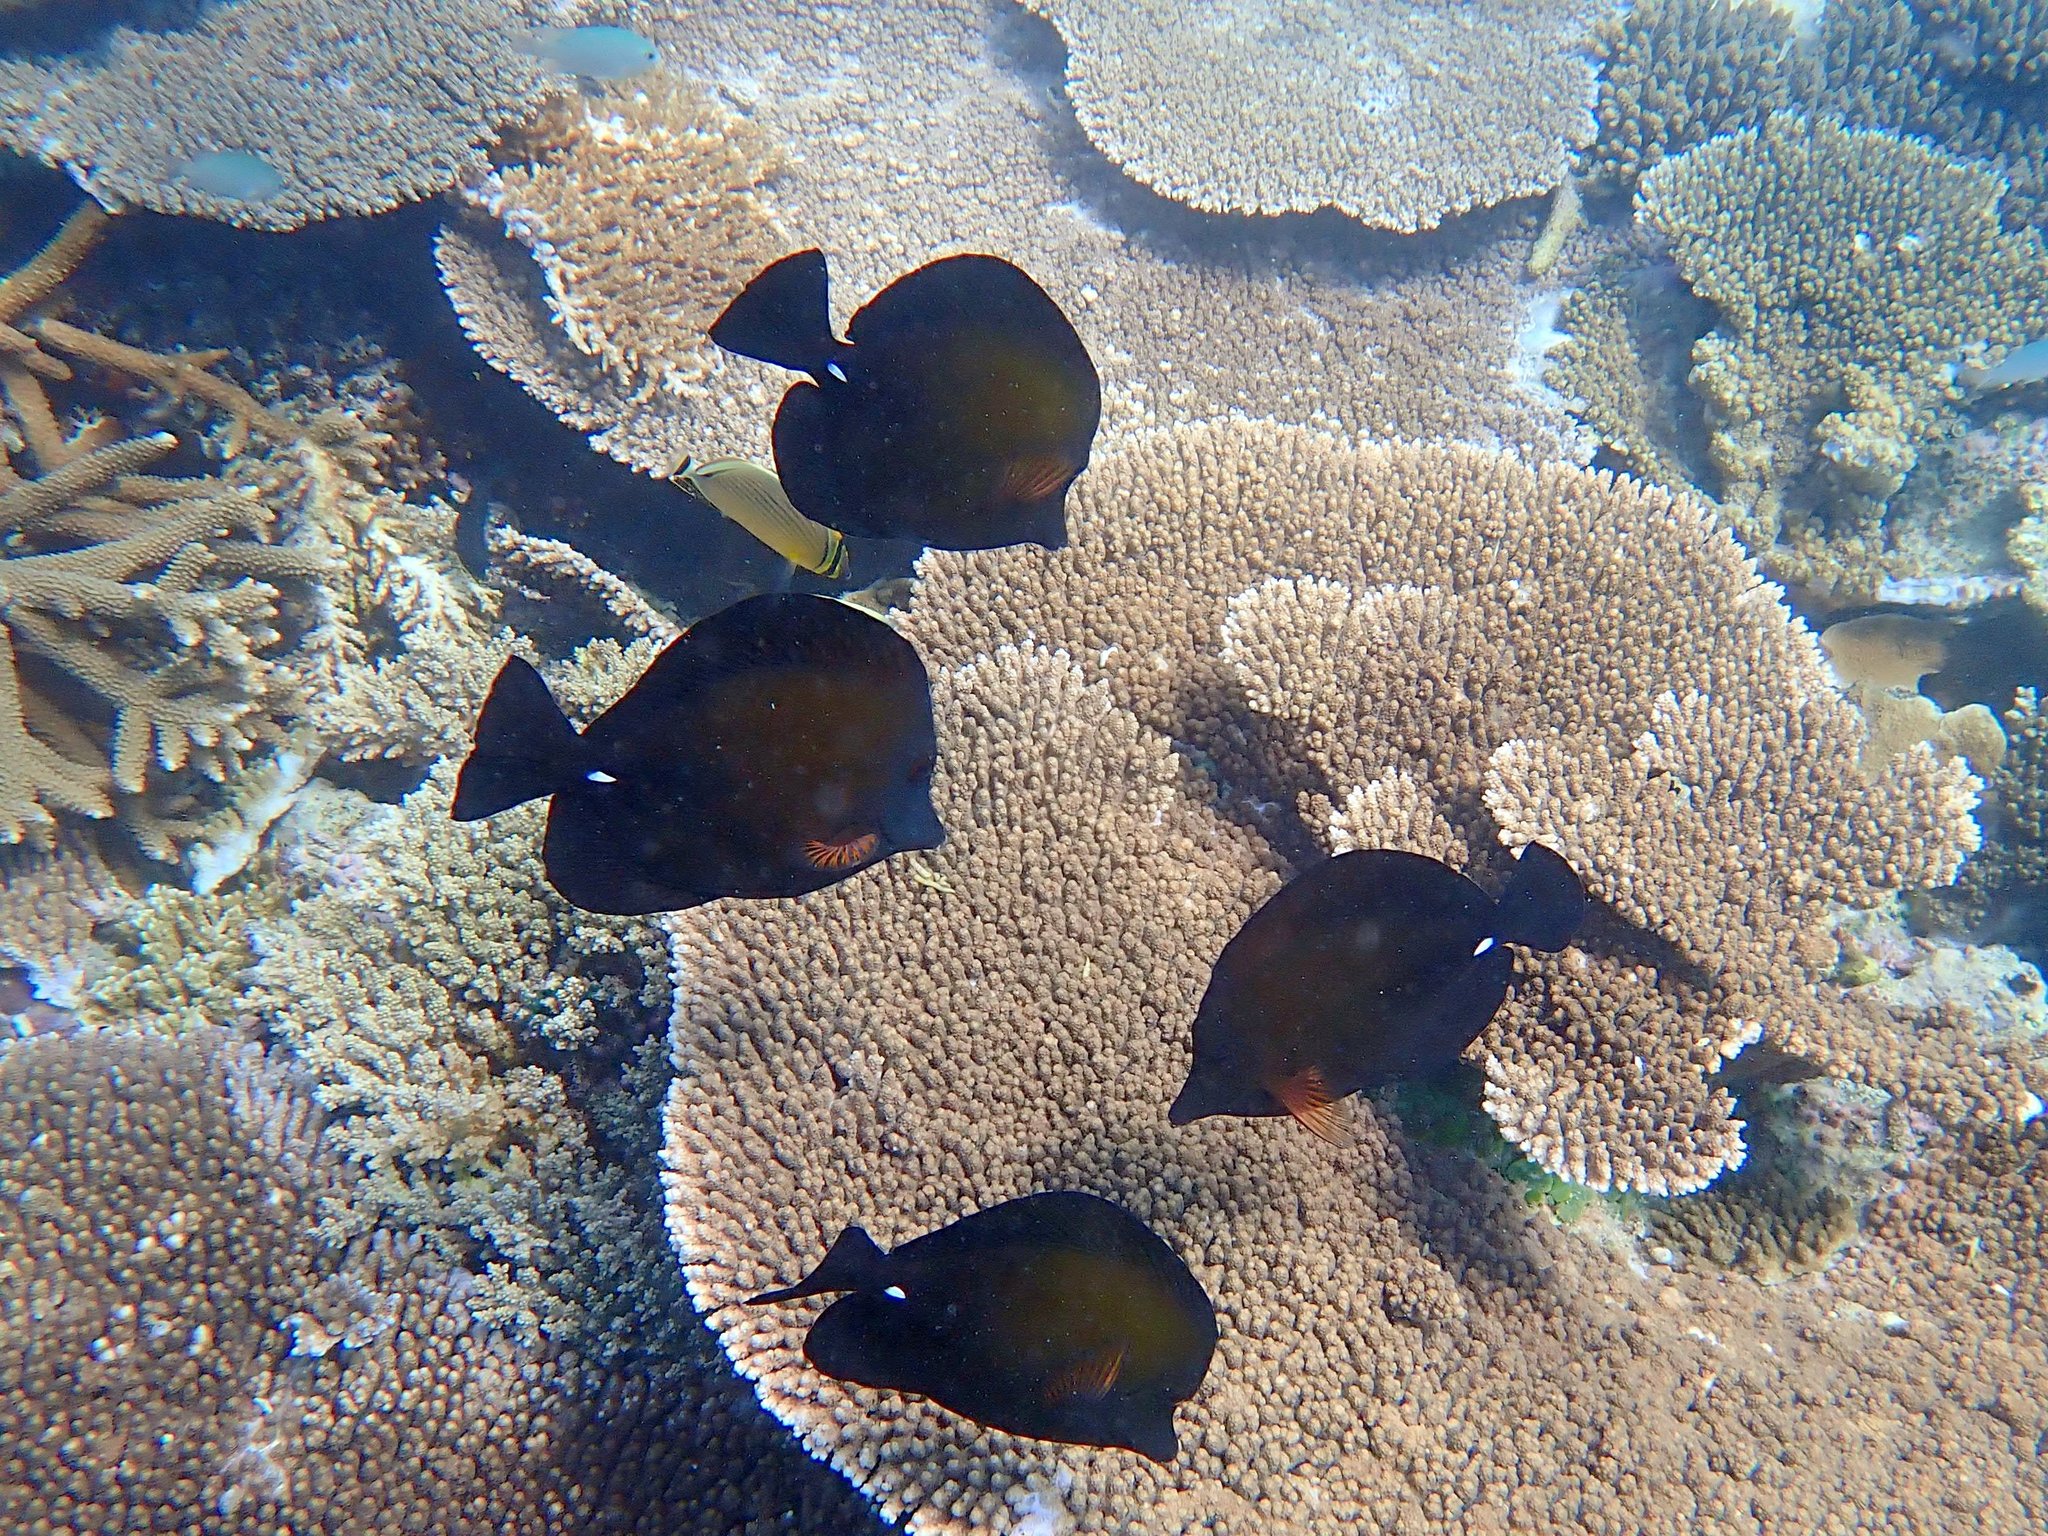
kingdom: Animalia
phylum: Chordata
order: Perciformes
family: Acanthuridae
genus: Zebrasoma
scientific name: Zebrasoma scopas
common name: Twotone tang
